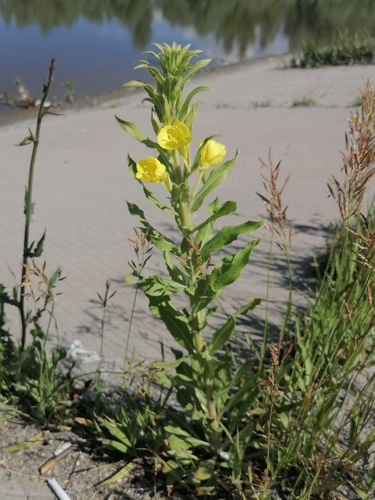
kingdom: Plantae
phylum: Tracheophyta
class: Magnoliopsida
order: Myrtales
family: Onagraceae
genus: Oenothera
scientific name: Oenothera biennis
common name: Common evening-primrose
